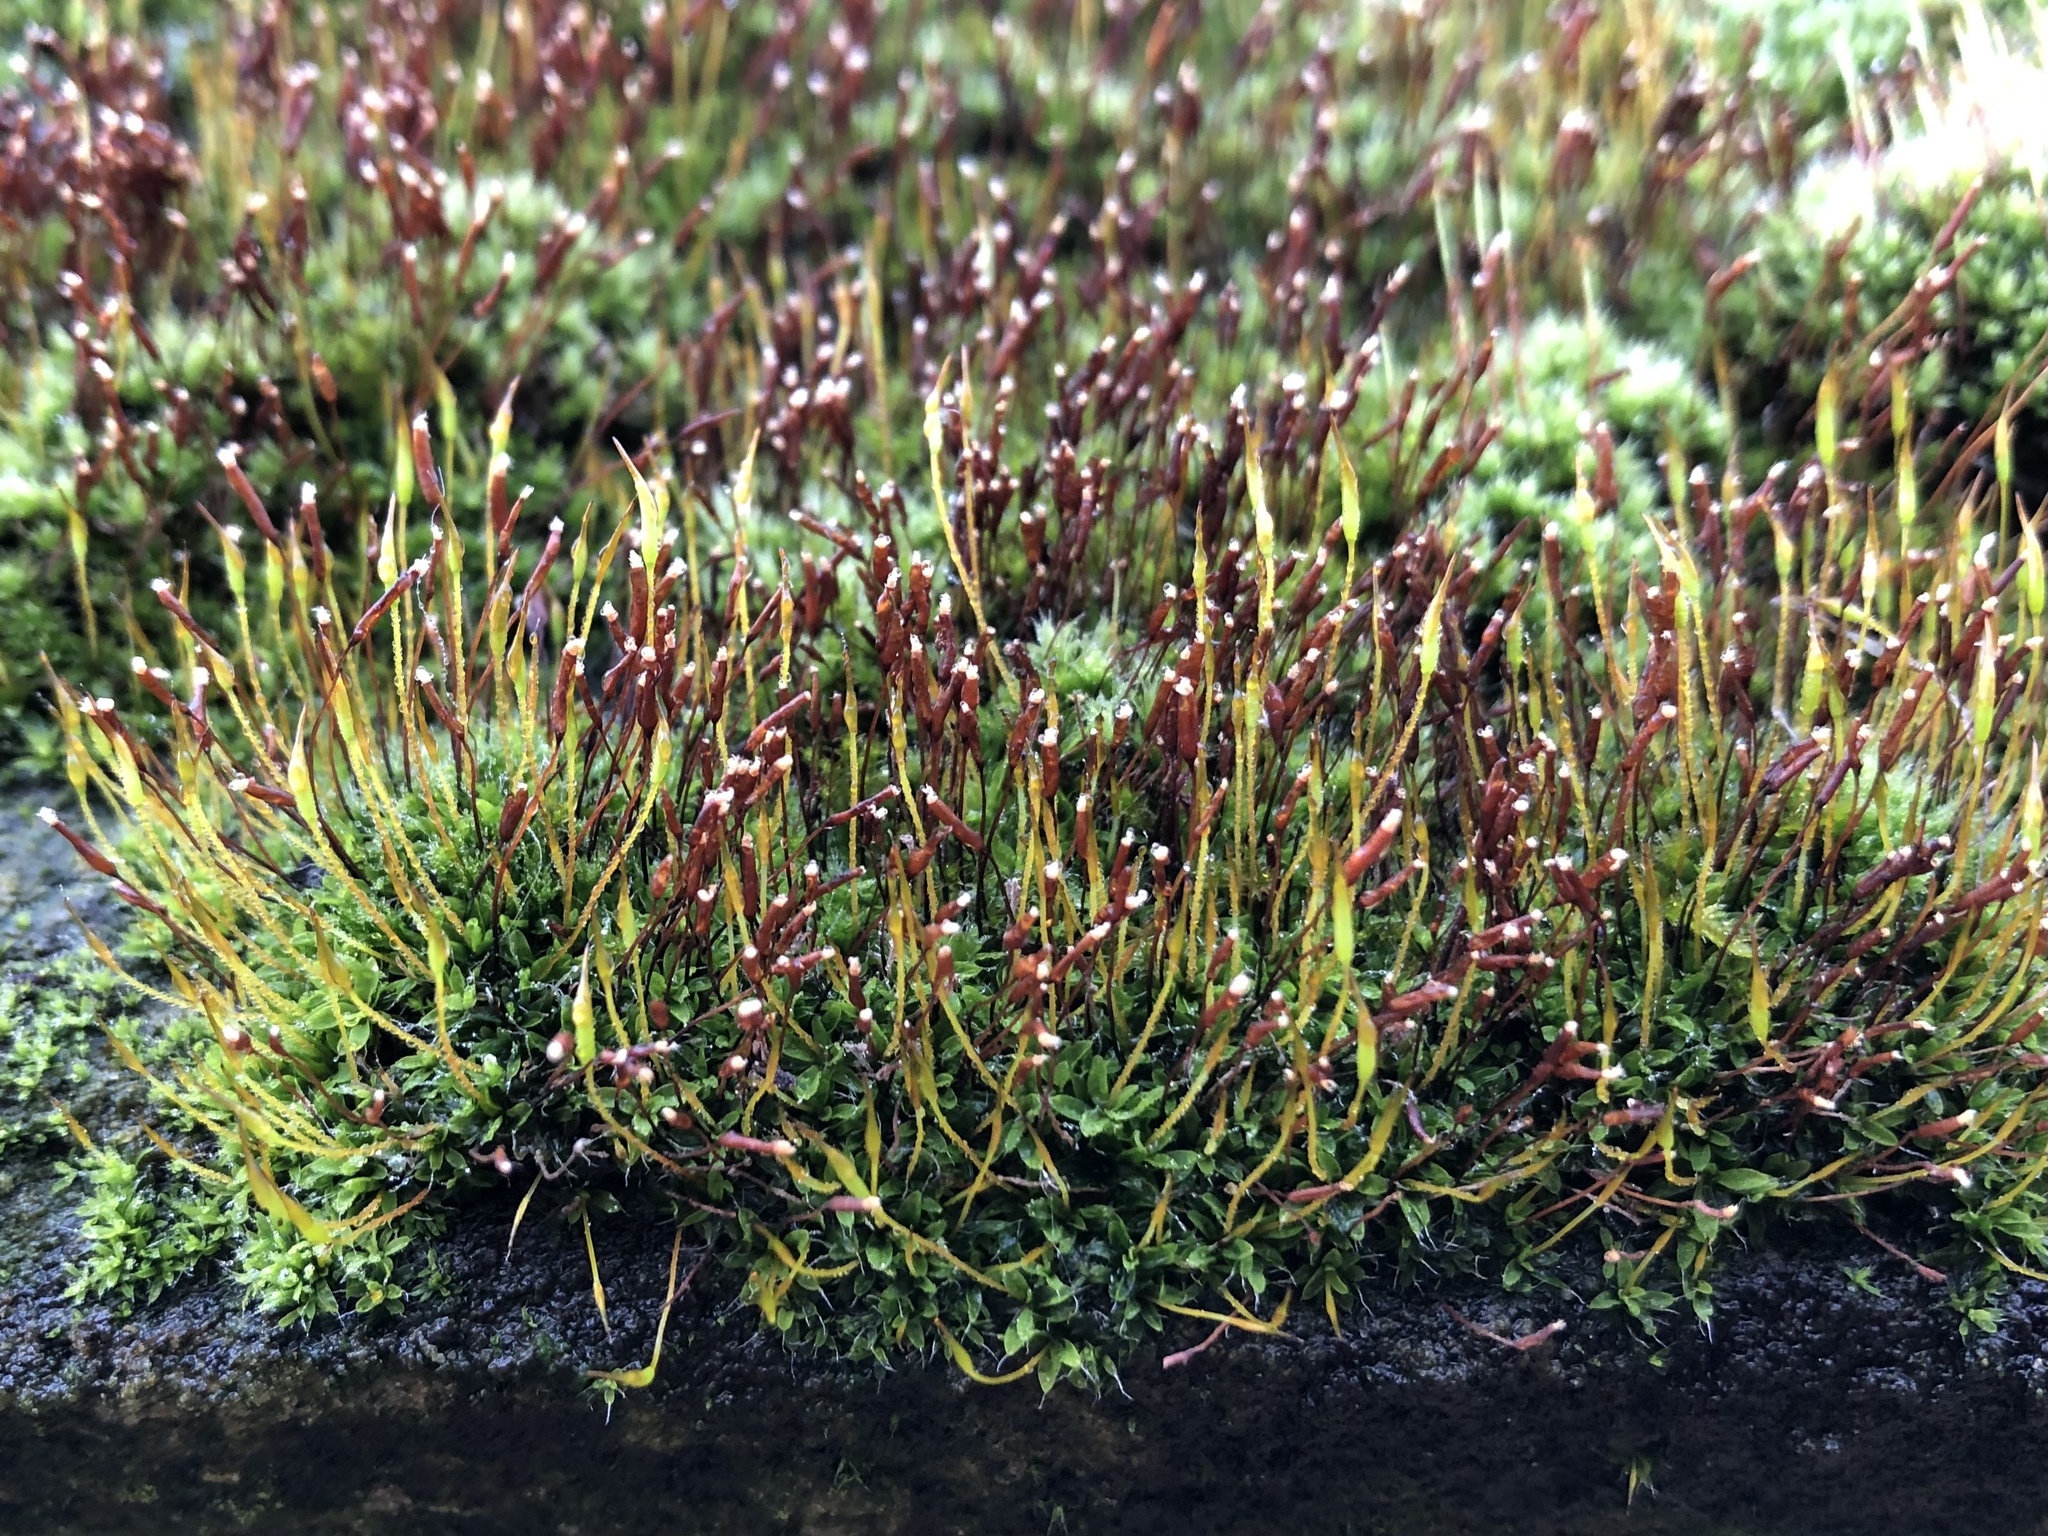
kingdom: Plantae
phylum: Bryophyta
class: Bryopsida
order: Pottiales
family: Pottiaceae
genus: Tortula
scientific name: Tortula muralis
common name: Wall screw-moss
